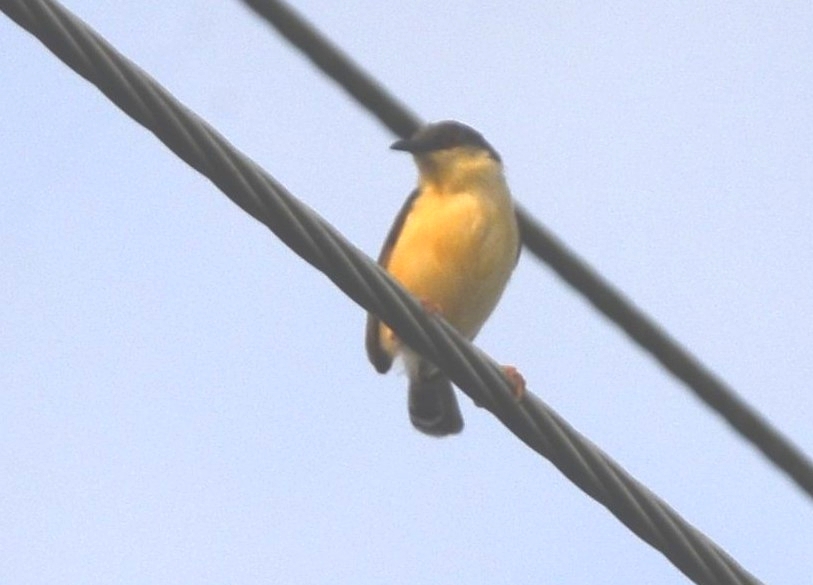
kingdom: Animalia
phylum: Chordata
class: Aves
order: Passeriformes
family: Cisticolidae
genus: Prinia
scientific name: Prinia socialis
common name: Ashy prinia
